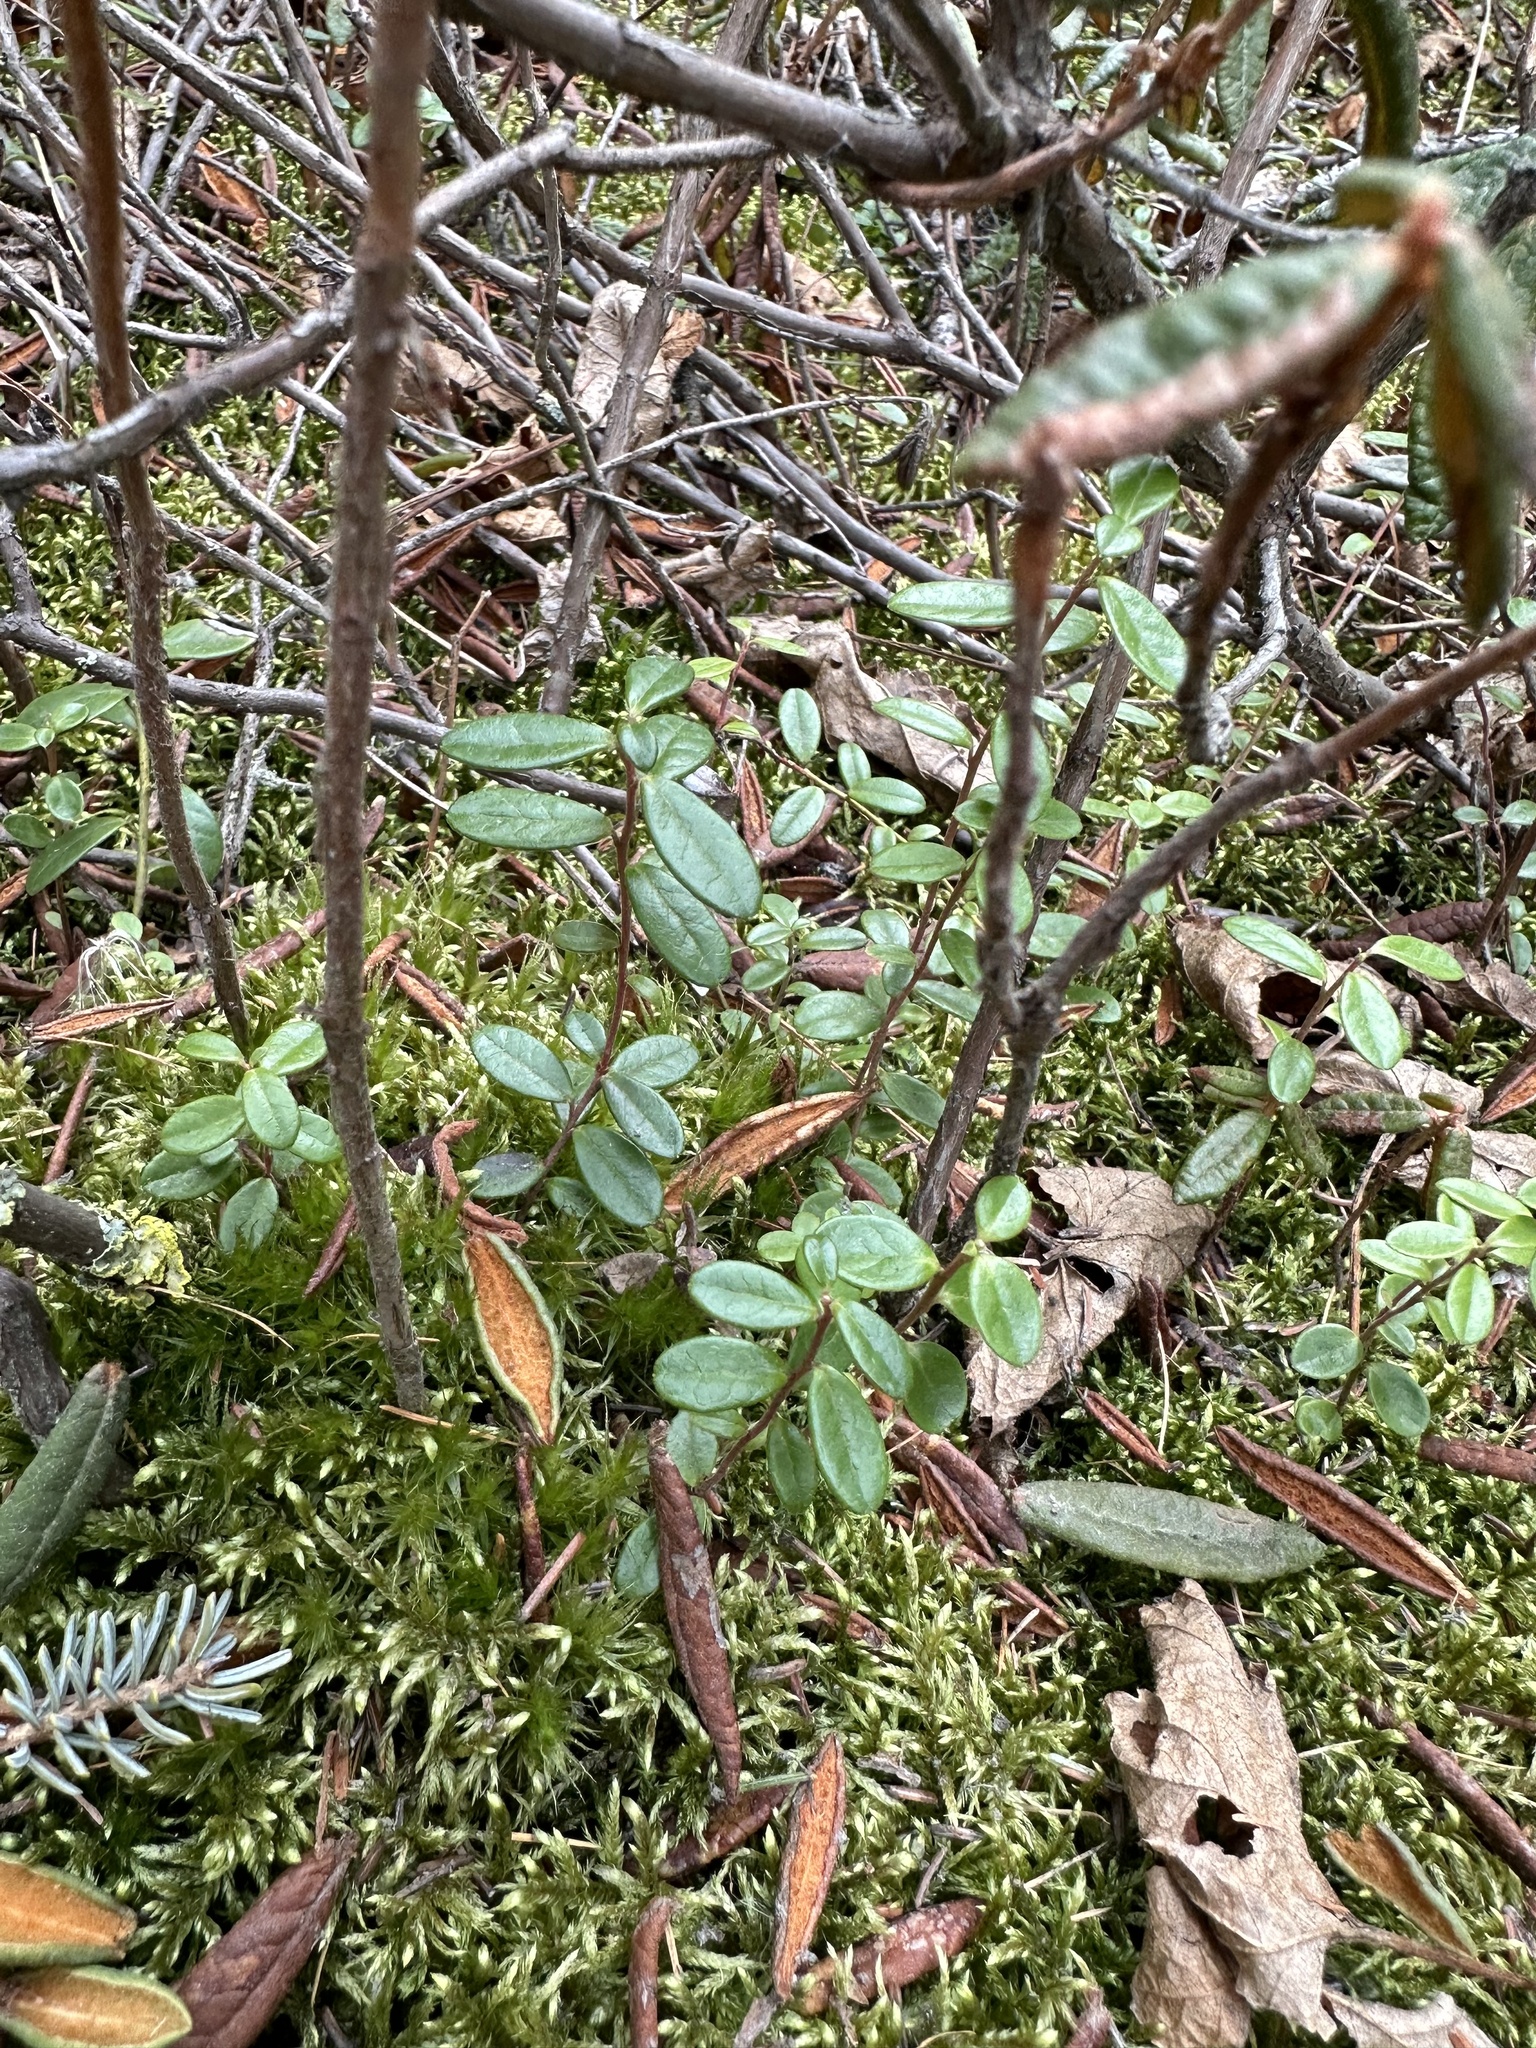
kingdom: Plantae
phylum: Tracheophyta
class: Magnoliopsida
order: Ericales
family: Ericaceae
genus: Vaccinium
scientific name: Vaccinium vitis-idaea
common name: Cowberry
